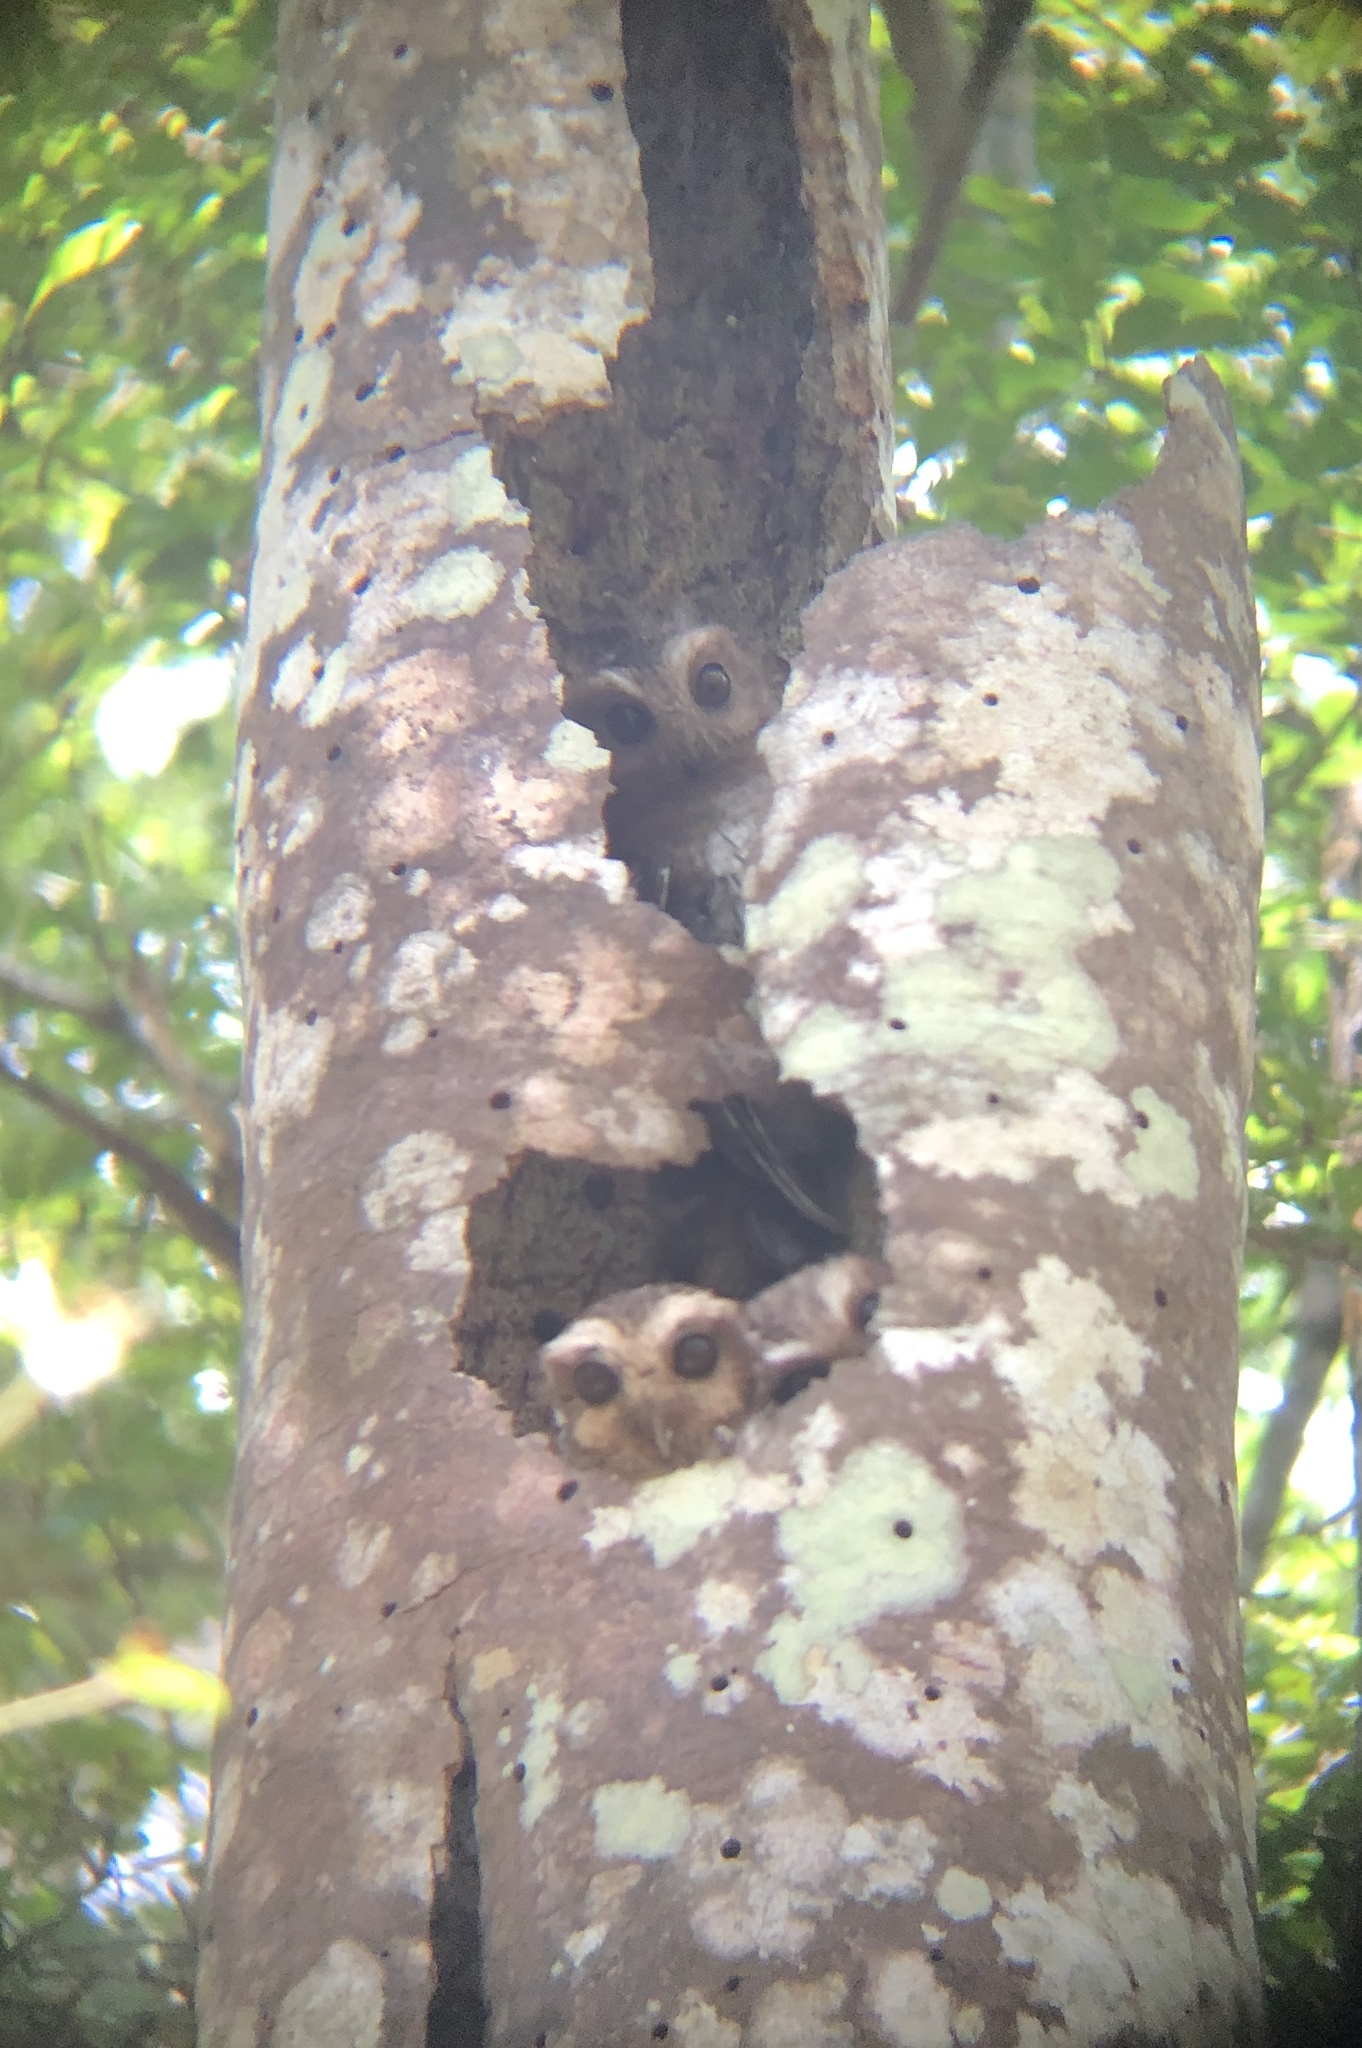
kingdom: Animalia
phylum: Chordata
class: Aves
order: Strigiformes
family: Strigidae
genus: Margarobyas
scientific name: Margarobyas lawrencii
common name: Bare-legged owl
